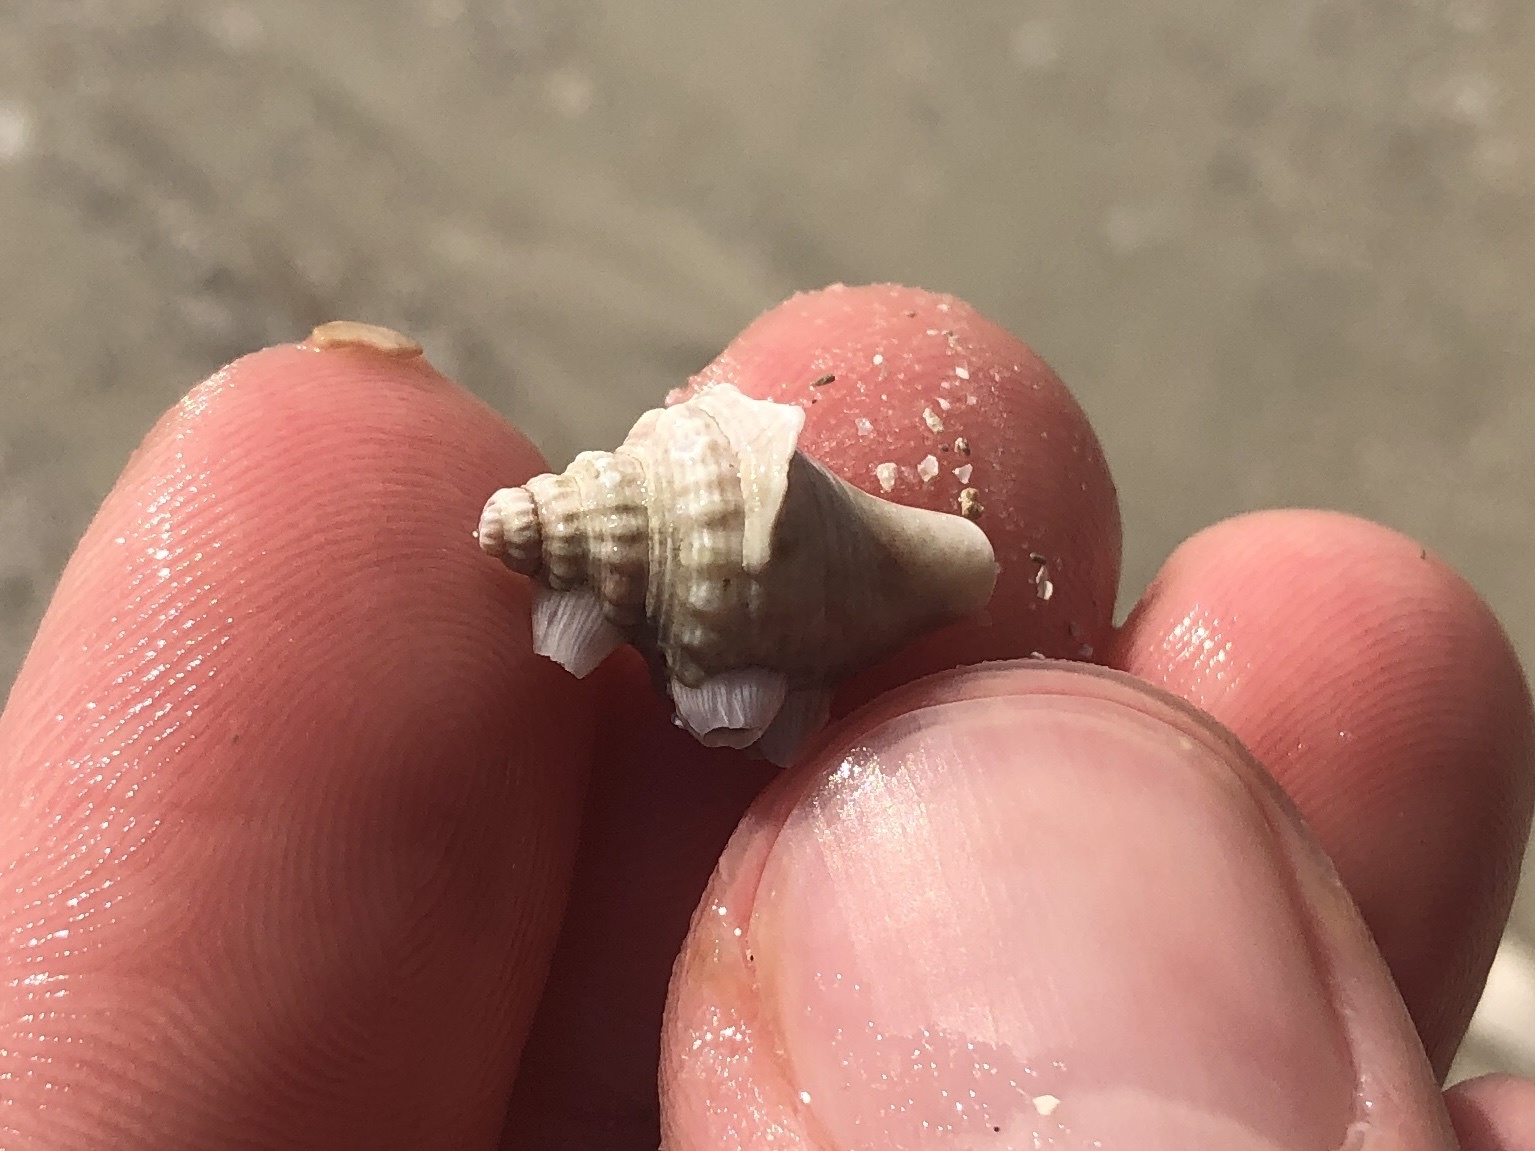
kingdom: Animalia
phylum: Mollusca
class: Gastropoda
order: Littorinimorpha
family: Strombidae
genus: Strombus
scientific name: Strombus alatus
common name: Florida fighting conch
